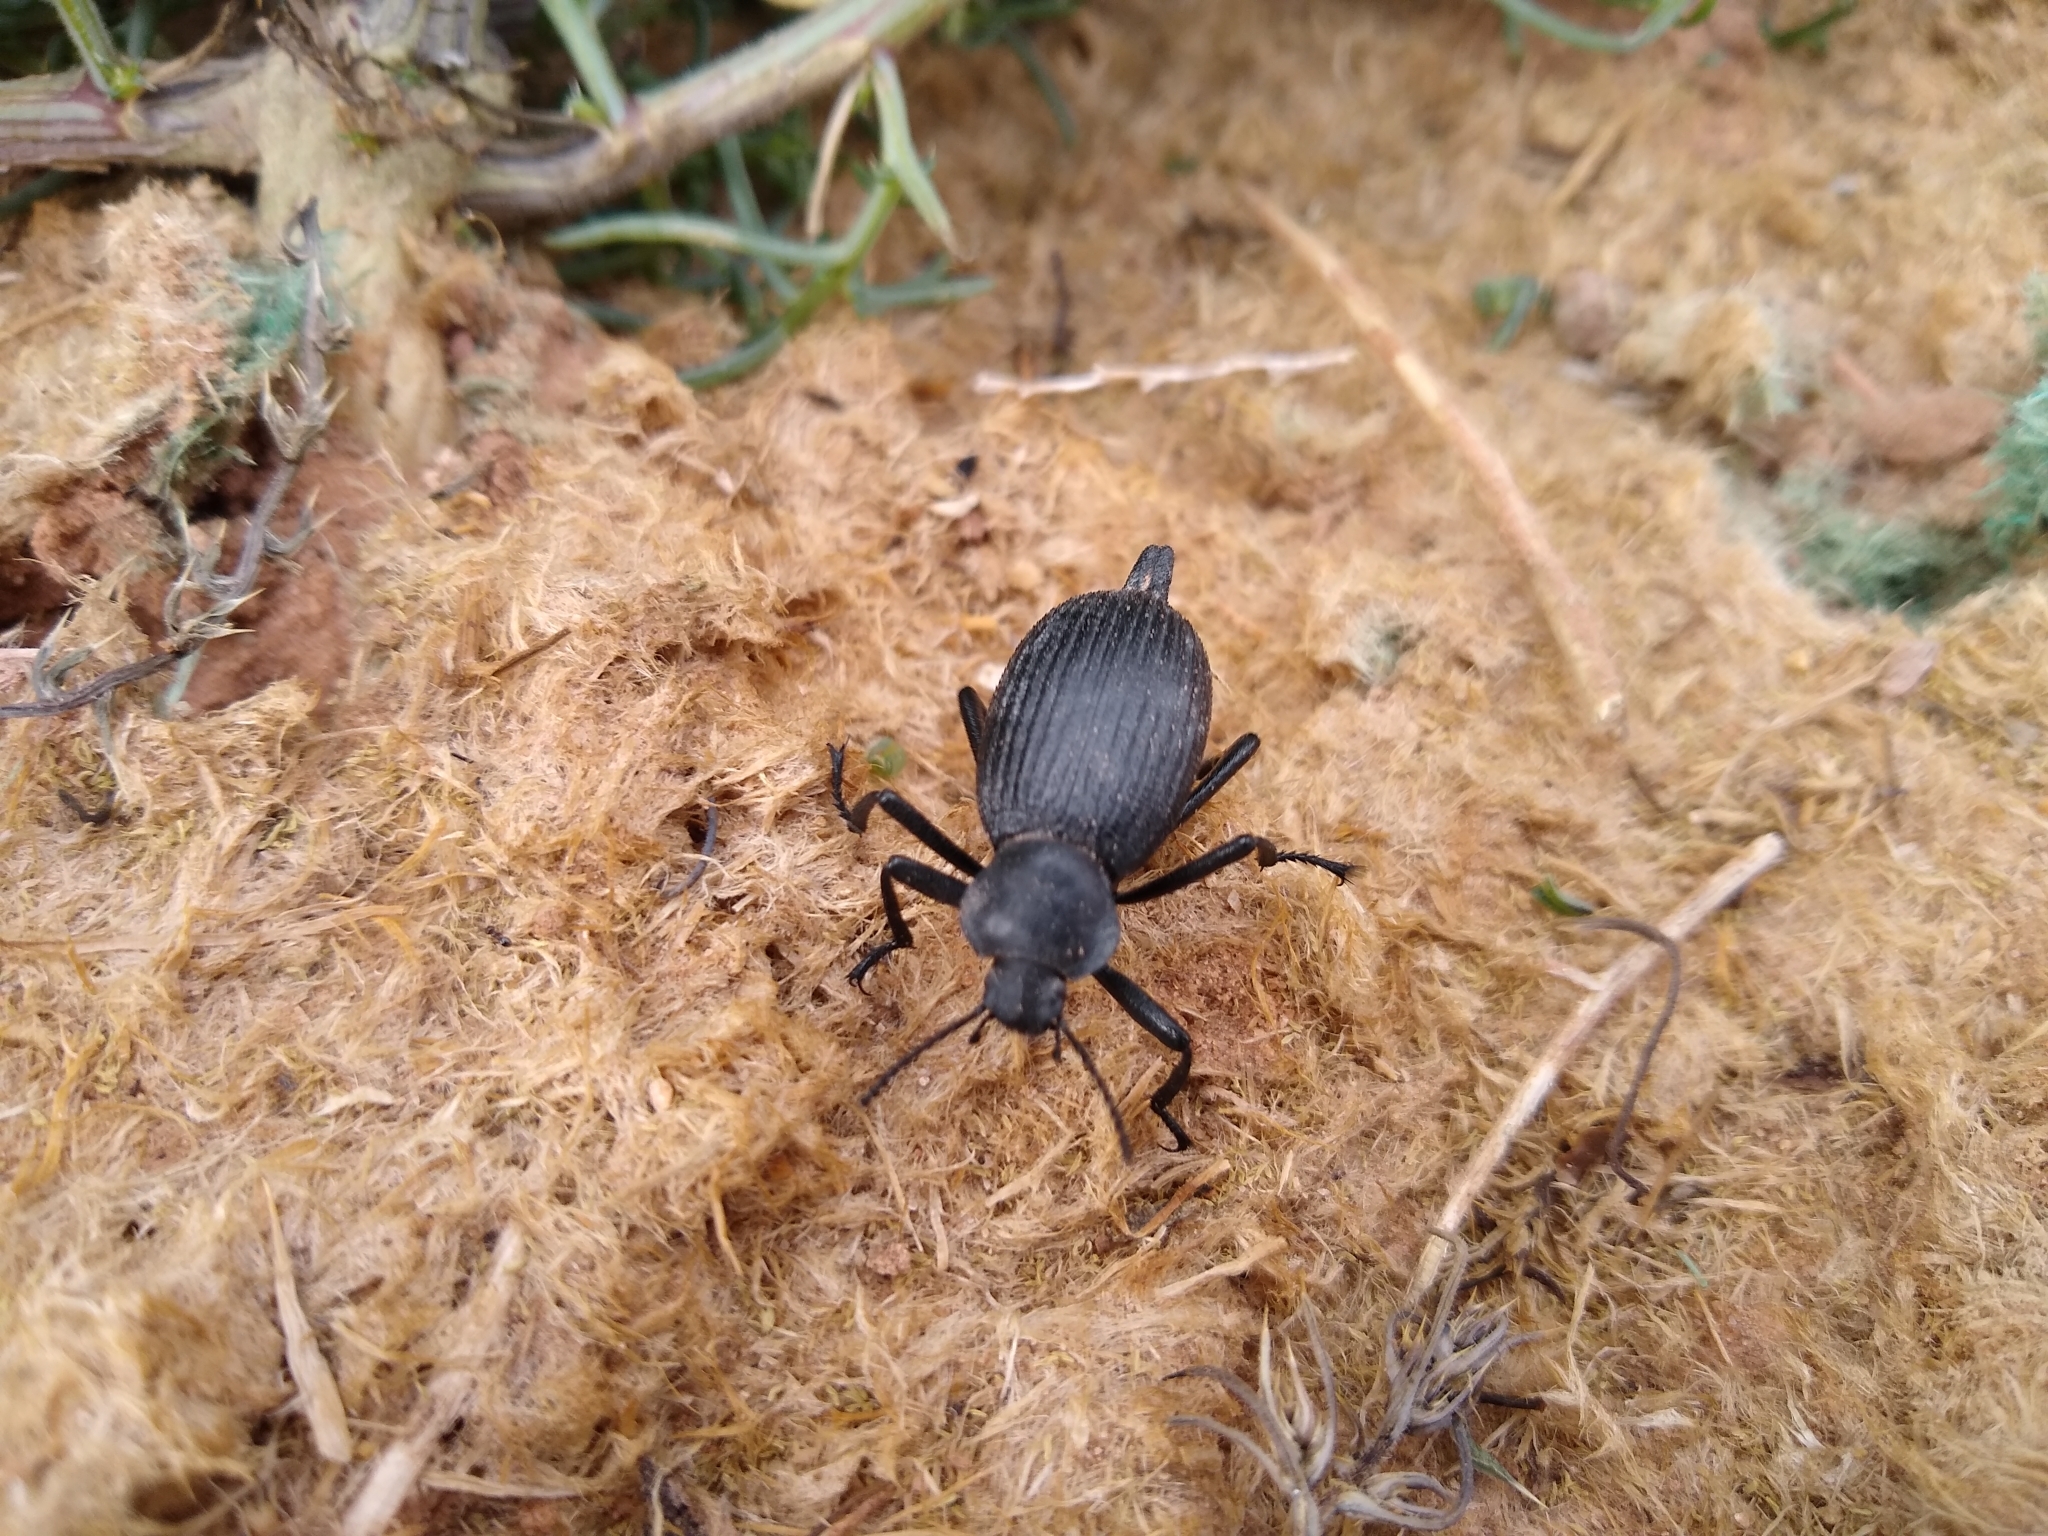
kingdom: Animalia
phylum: Arthropoda
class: Insecta
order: Coleoptera
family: Tenebrionidae
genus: Eleodes
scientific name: Eleodes caudifera
